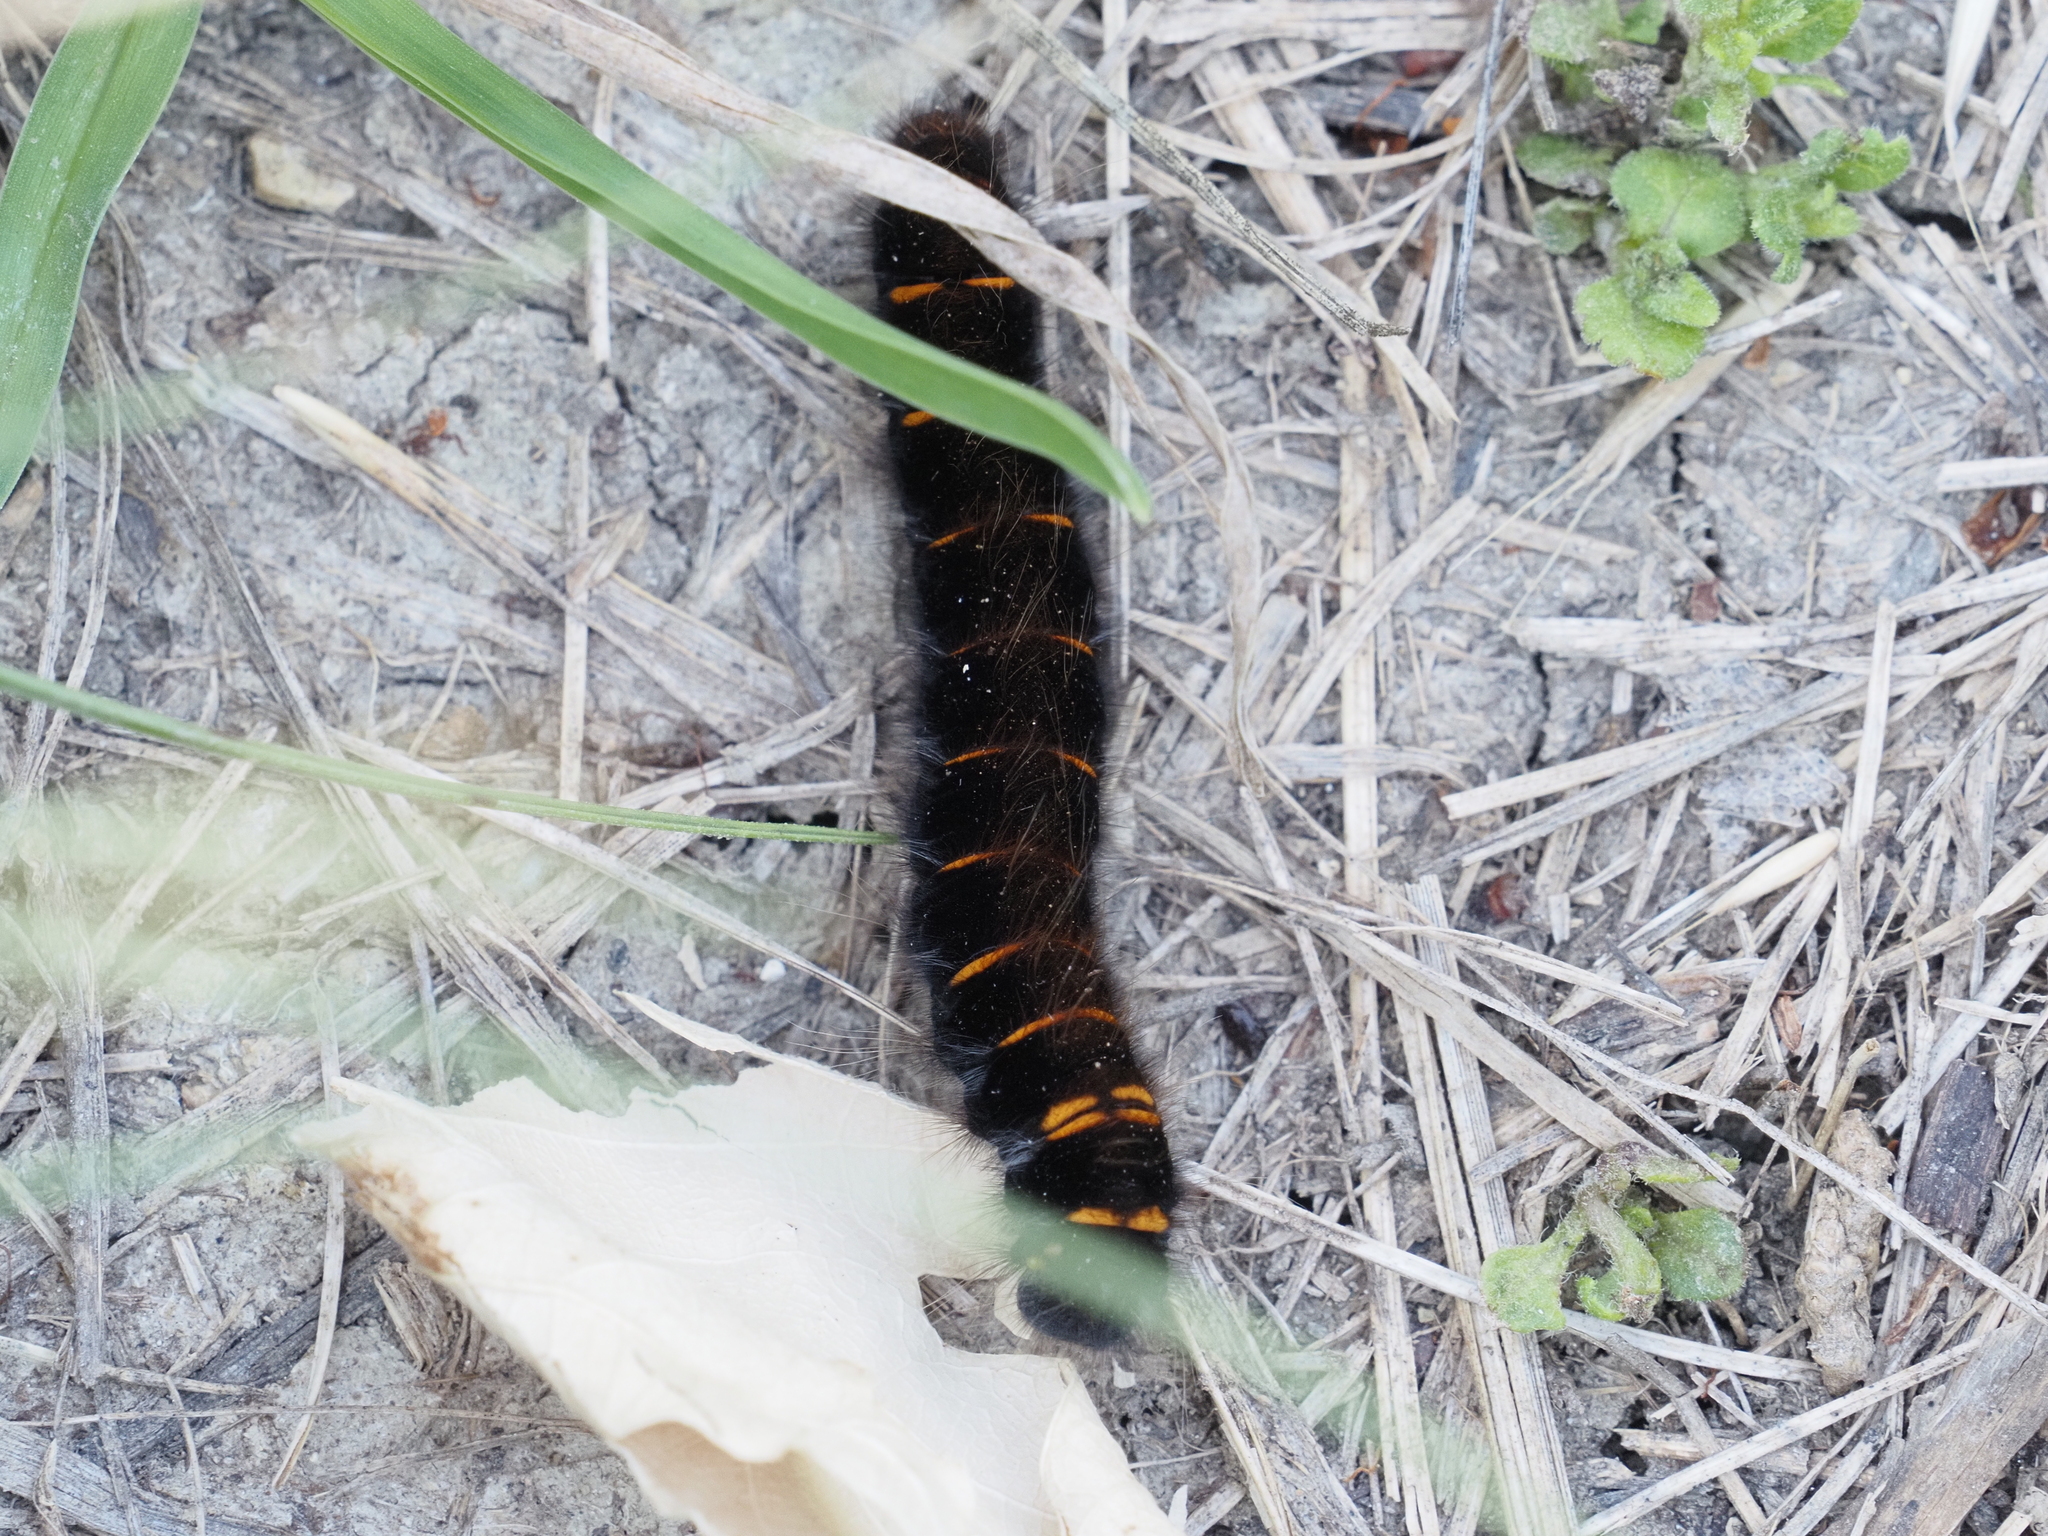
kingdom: Animalia
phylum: Arthropoda
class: Insecta
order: Lepidoptera
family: Lasiocampidae
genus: Macrothylacia
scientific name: Macrothylacia rubi
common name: Fox moth
